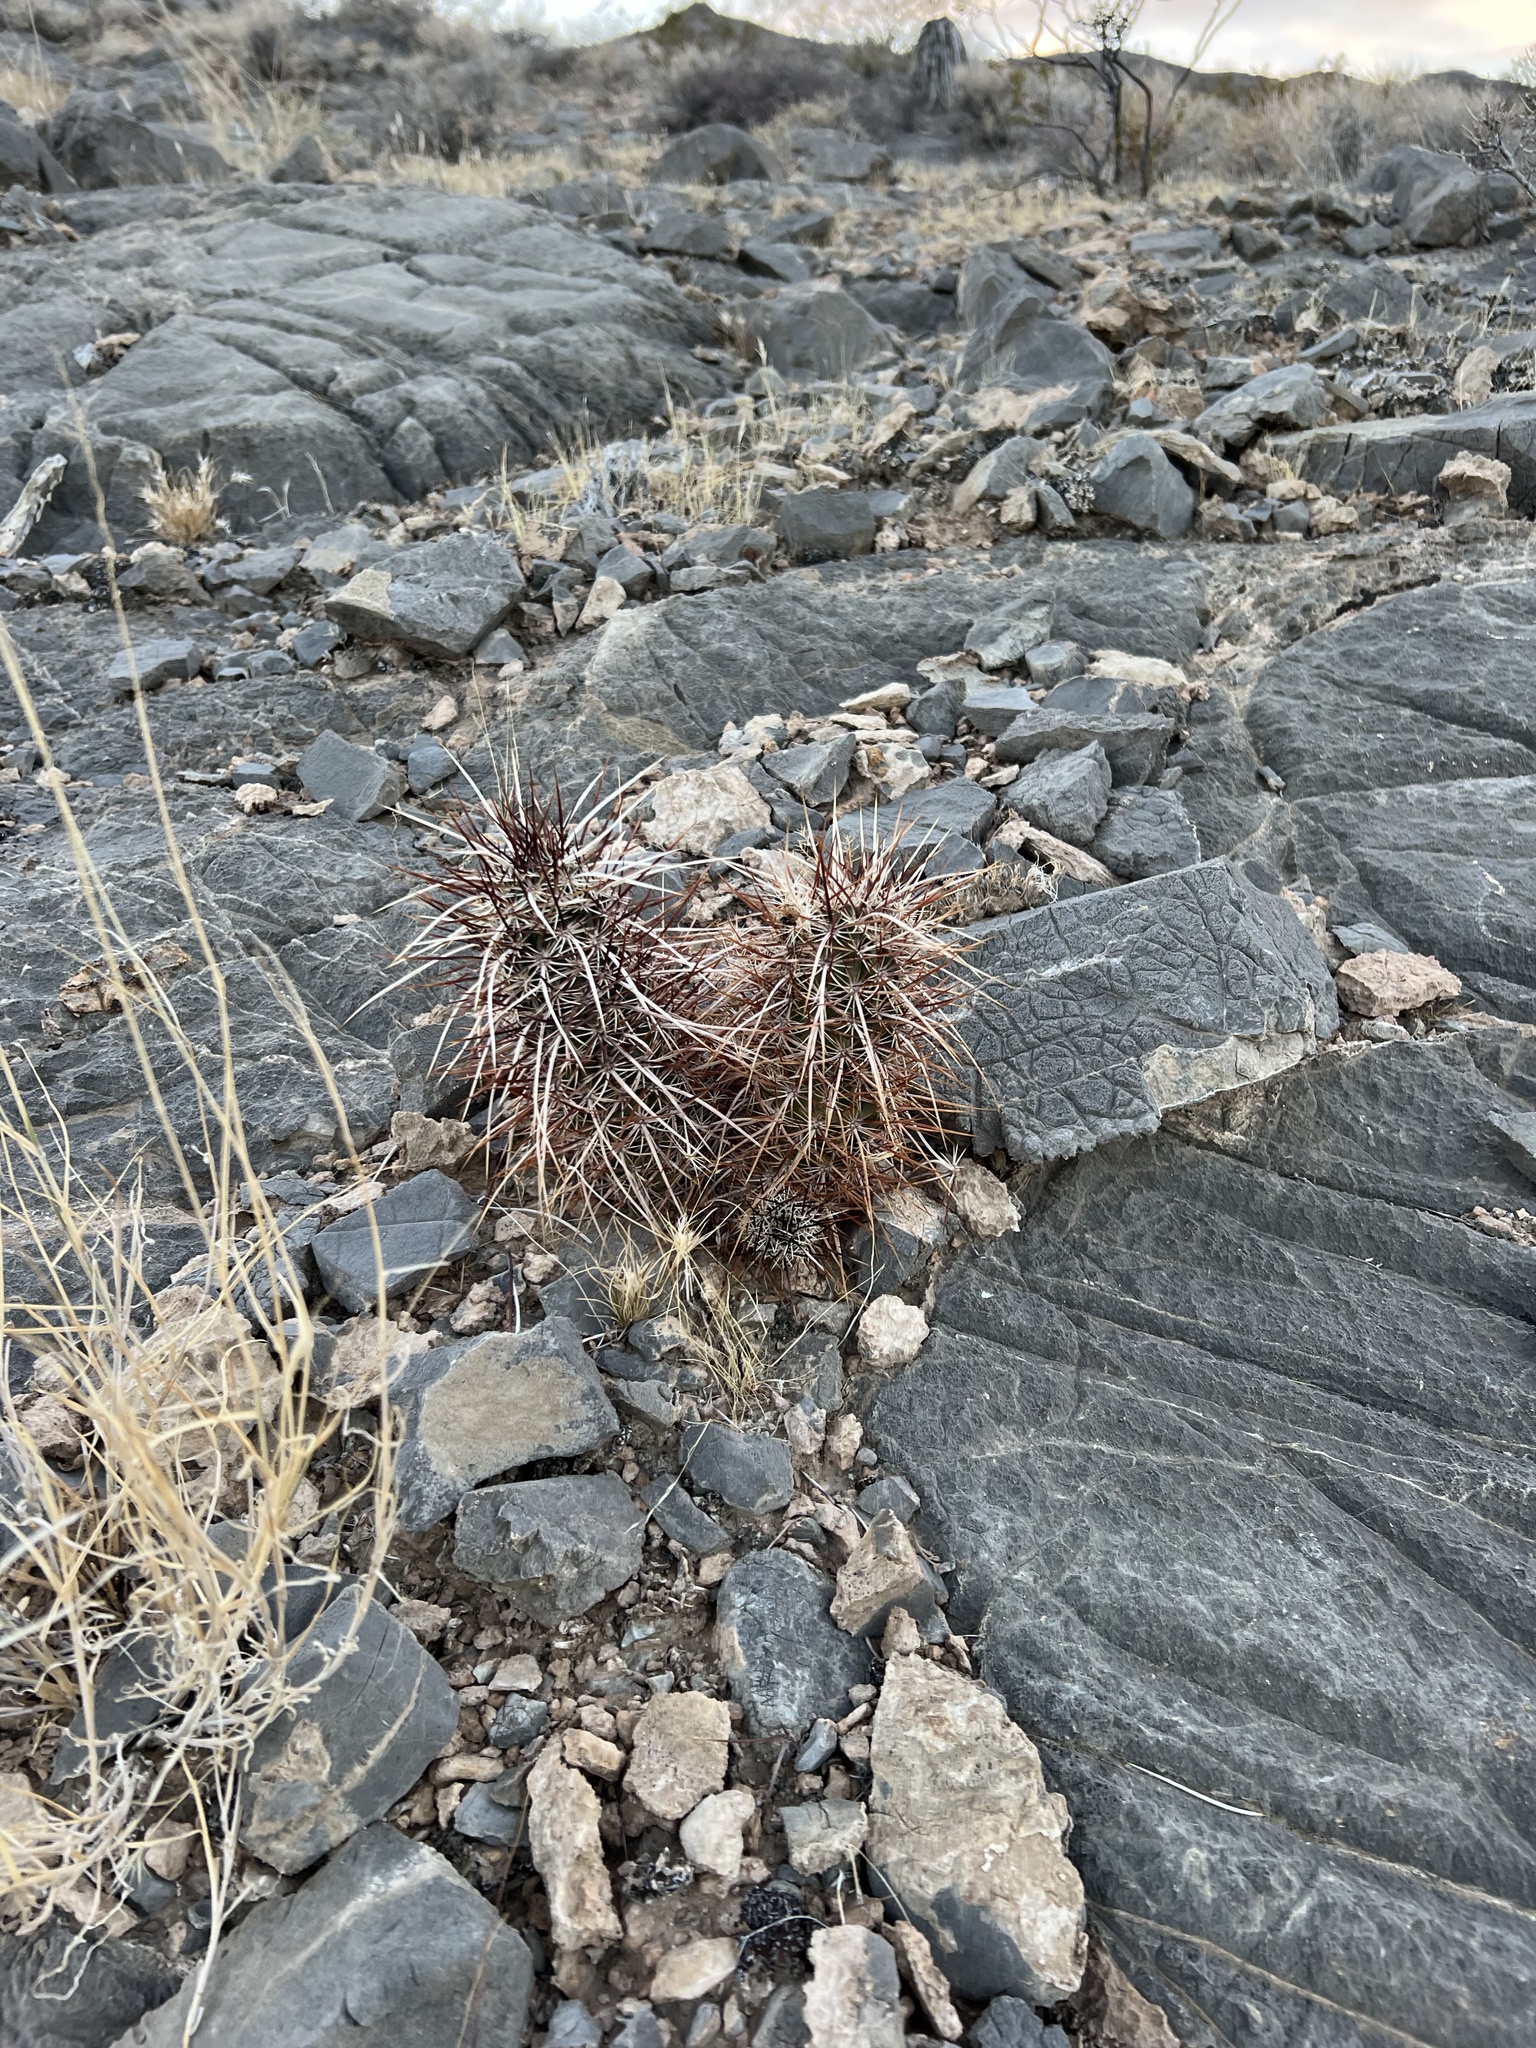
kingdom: Plantae
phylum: Tracheophyta
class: Magnoliopsida
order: Caryophyllales
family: Cactaceae
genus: Echinocereus
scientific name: Echinocereus engelmannii
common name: Engelmann's hedgehog cactus
